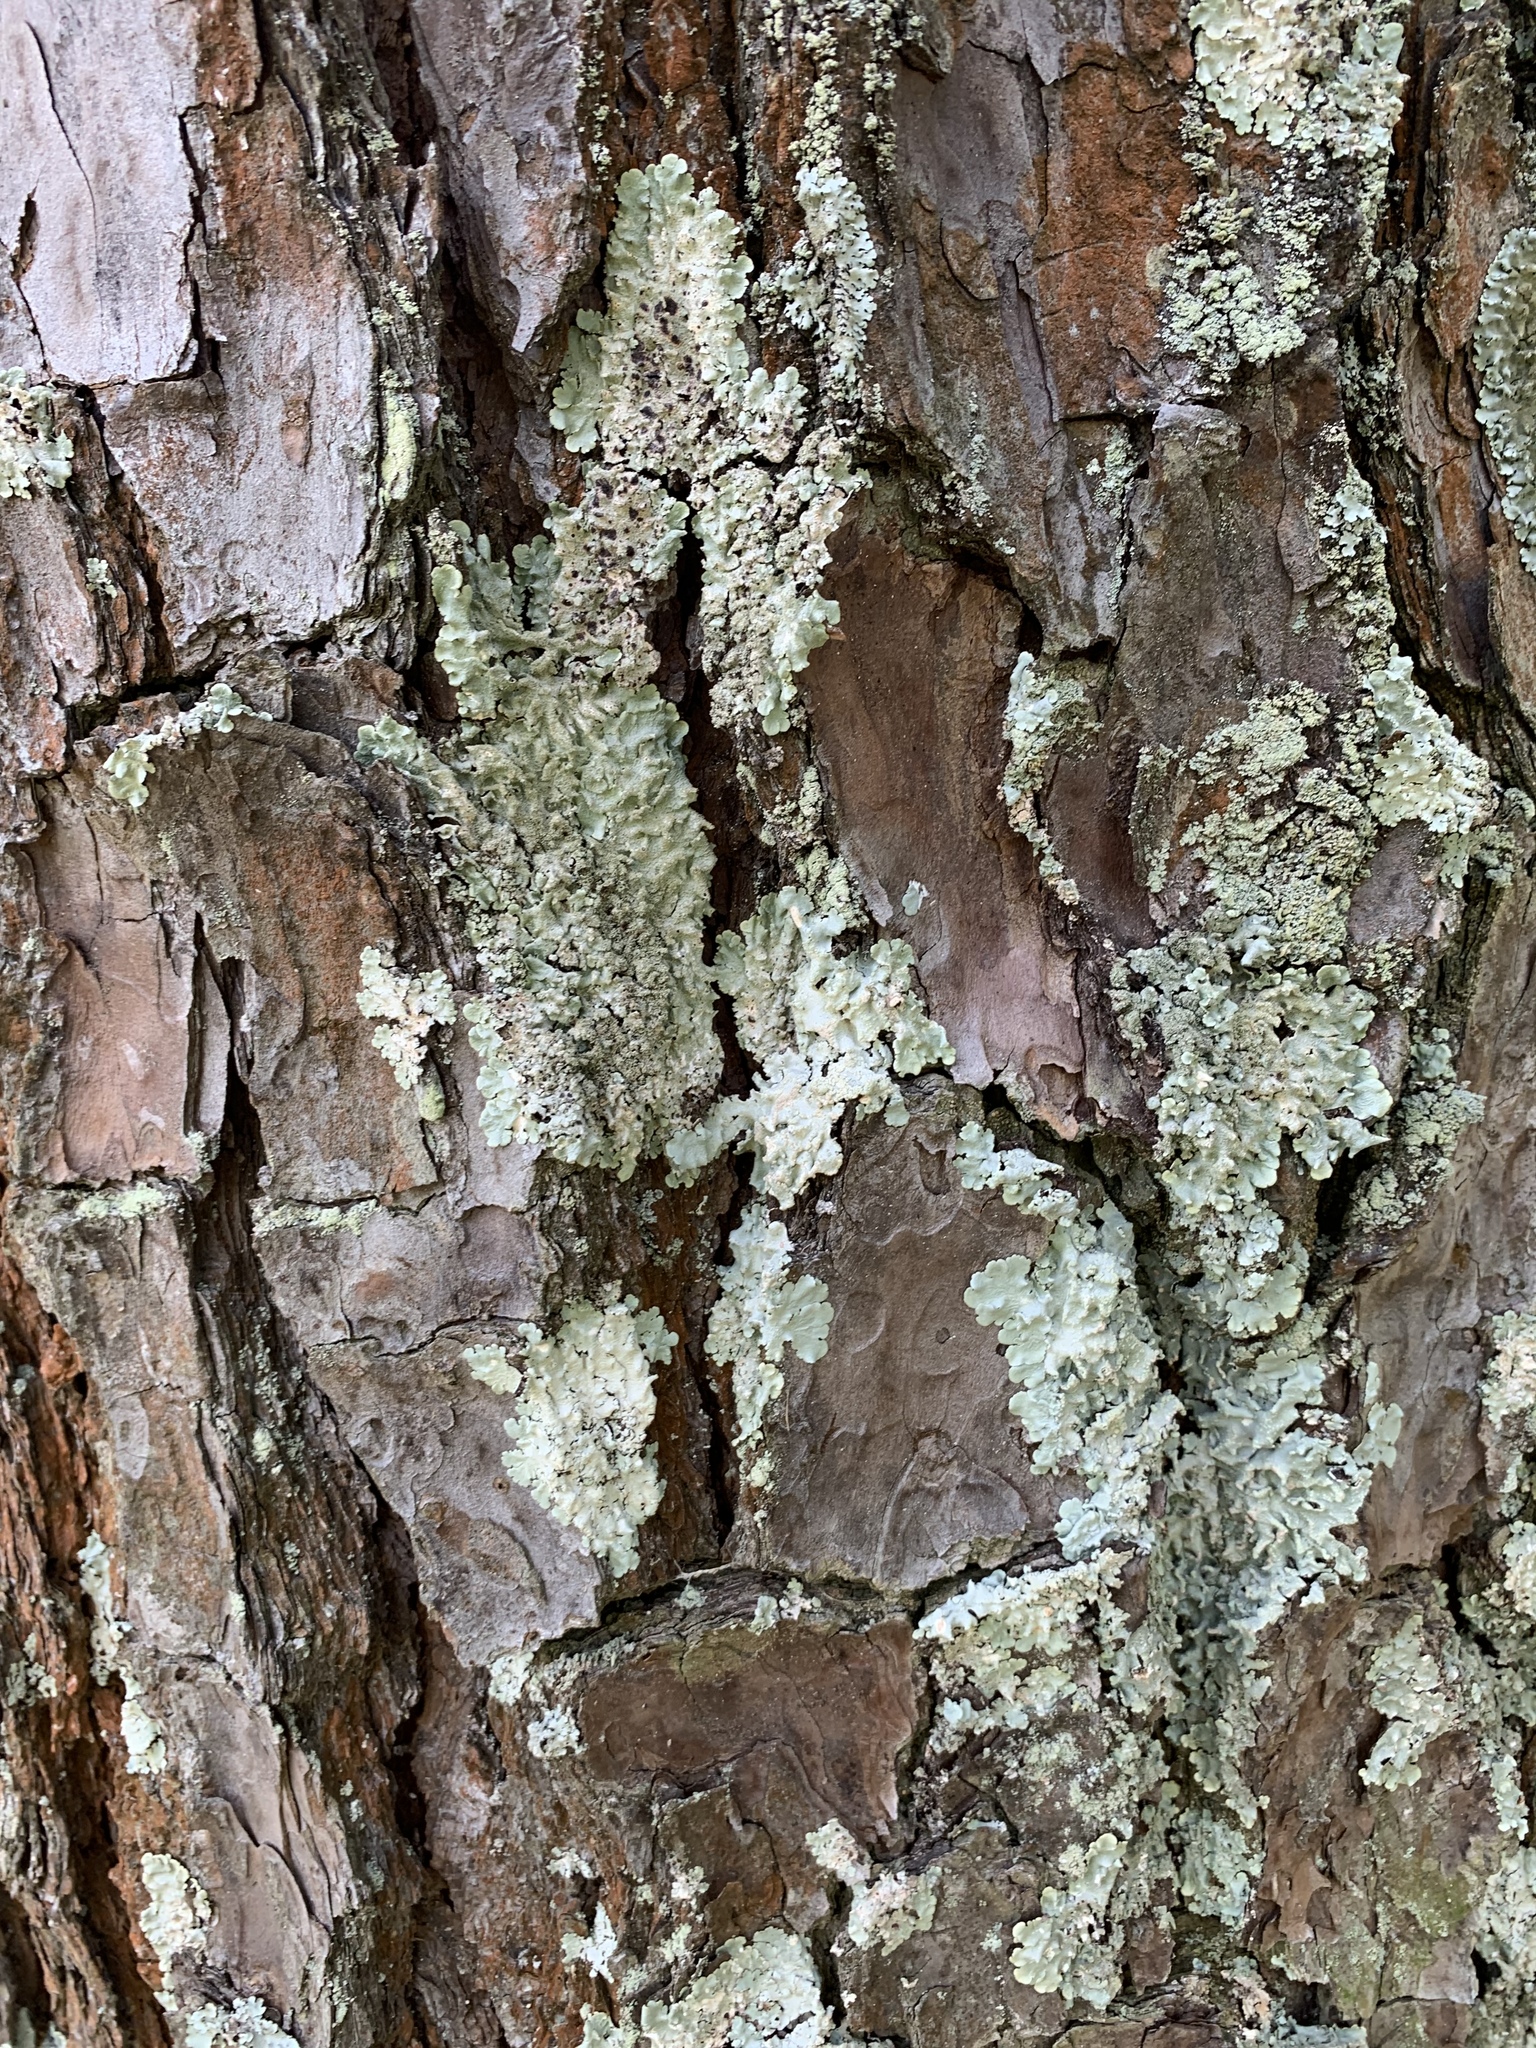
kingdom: Fungi
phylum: Ascomycota
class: Lecanoromycetes
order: Lecanorales
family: Parmeliaceae
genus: Canoparmelia
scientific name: Canoparmelia texana
